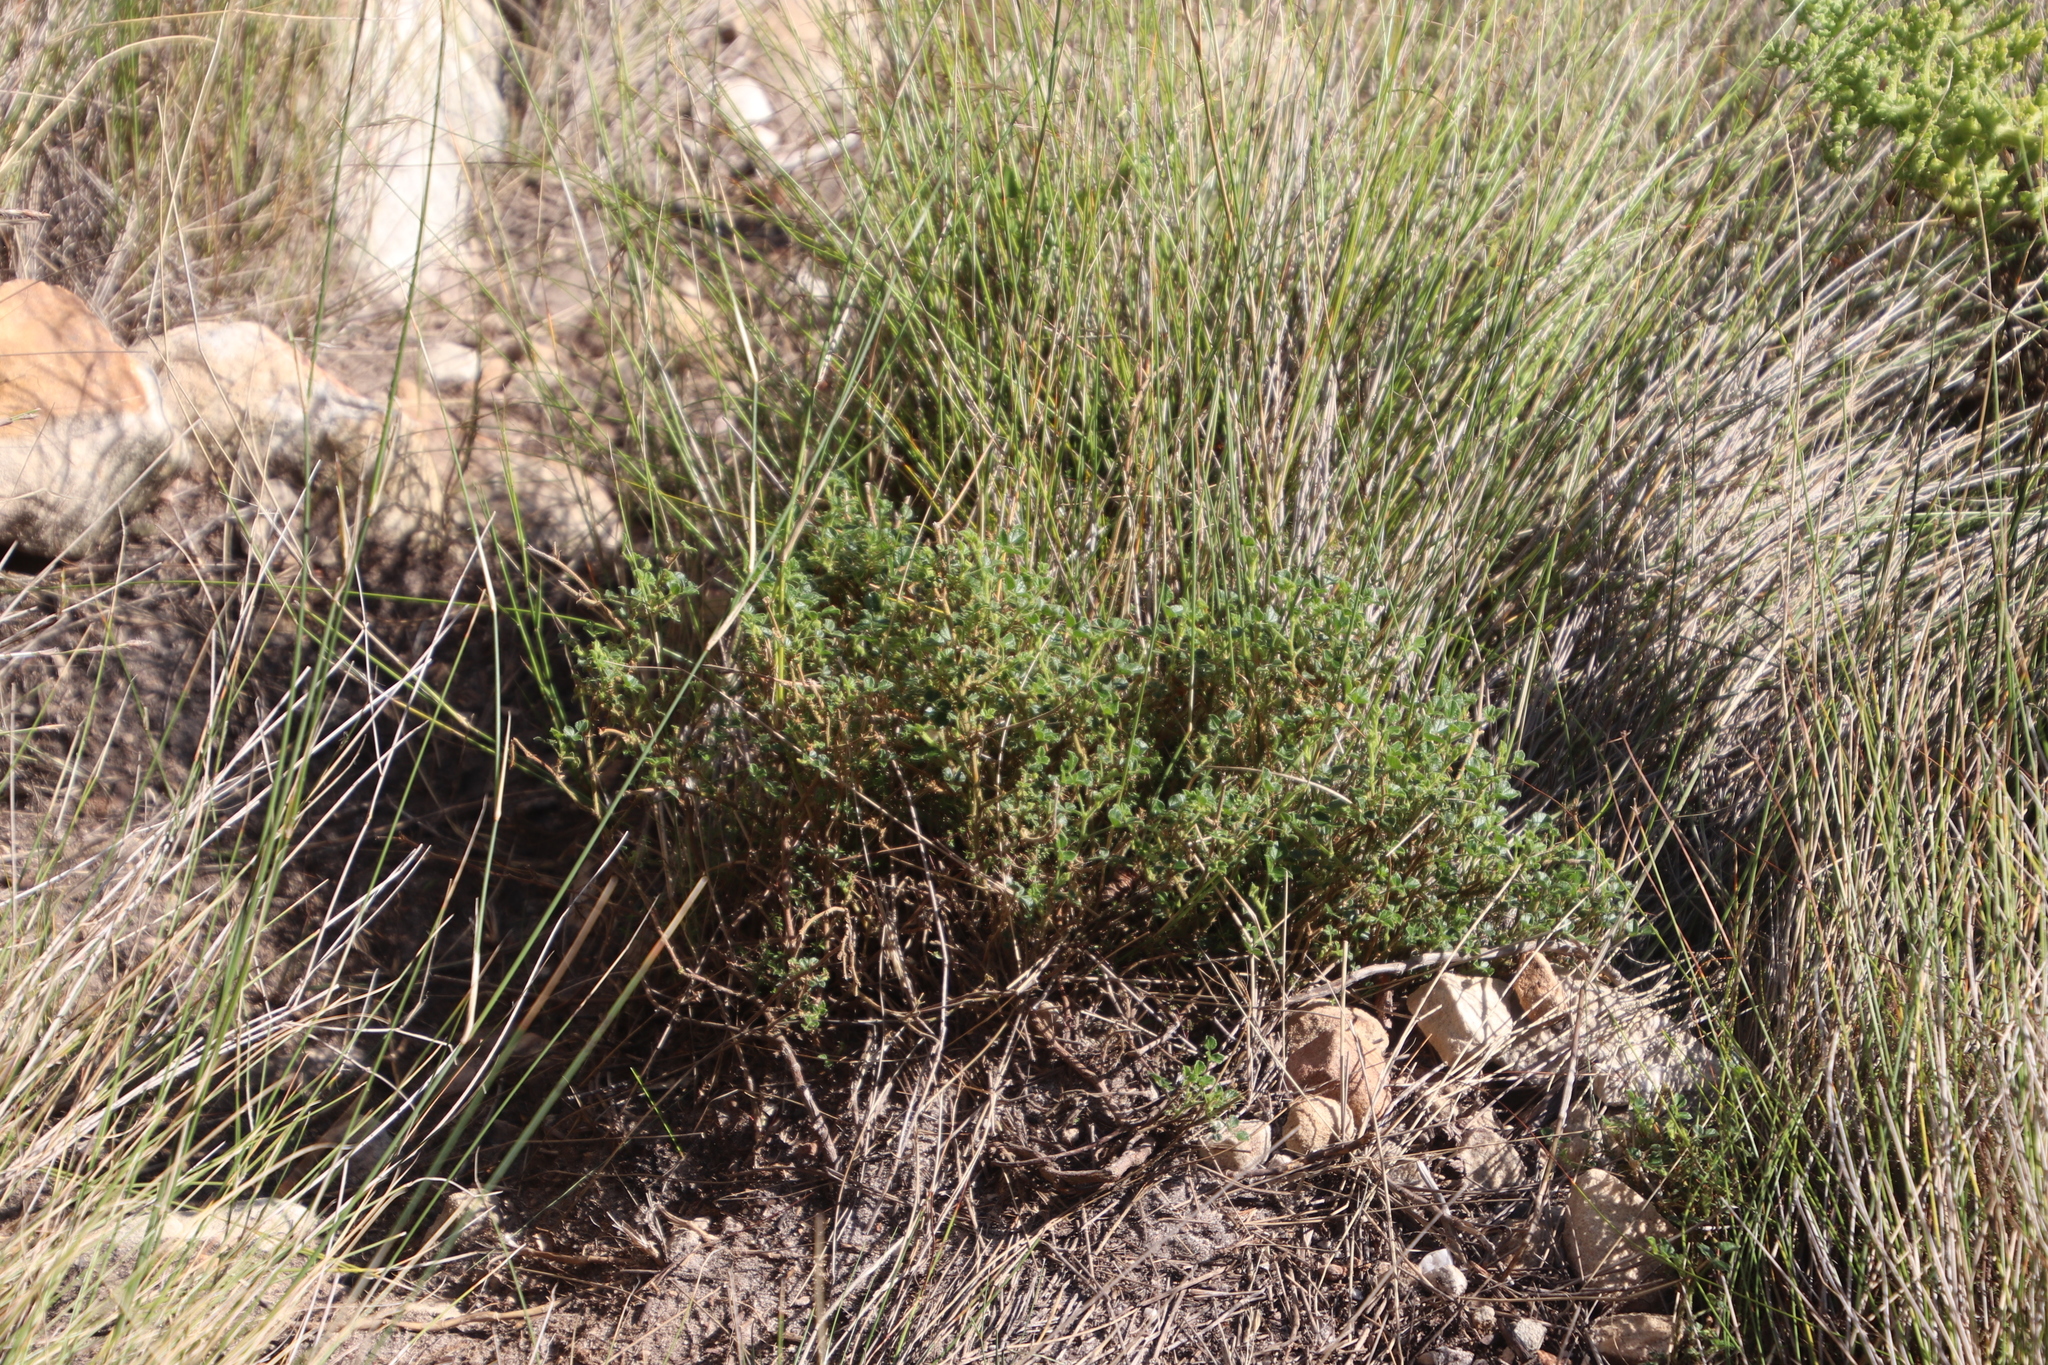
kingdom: Plantae
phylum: Tracheophyta
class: Magnoliopsida
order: Fabales
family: Fabaceae
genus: Bolusafra
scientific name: Bolusafra bituminosa
